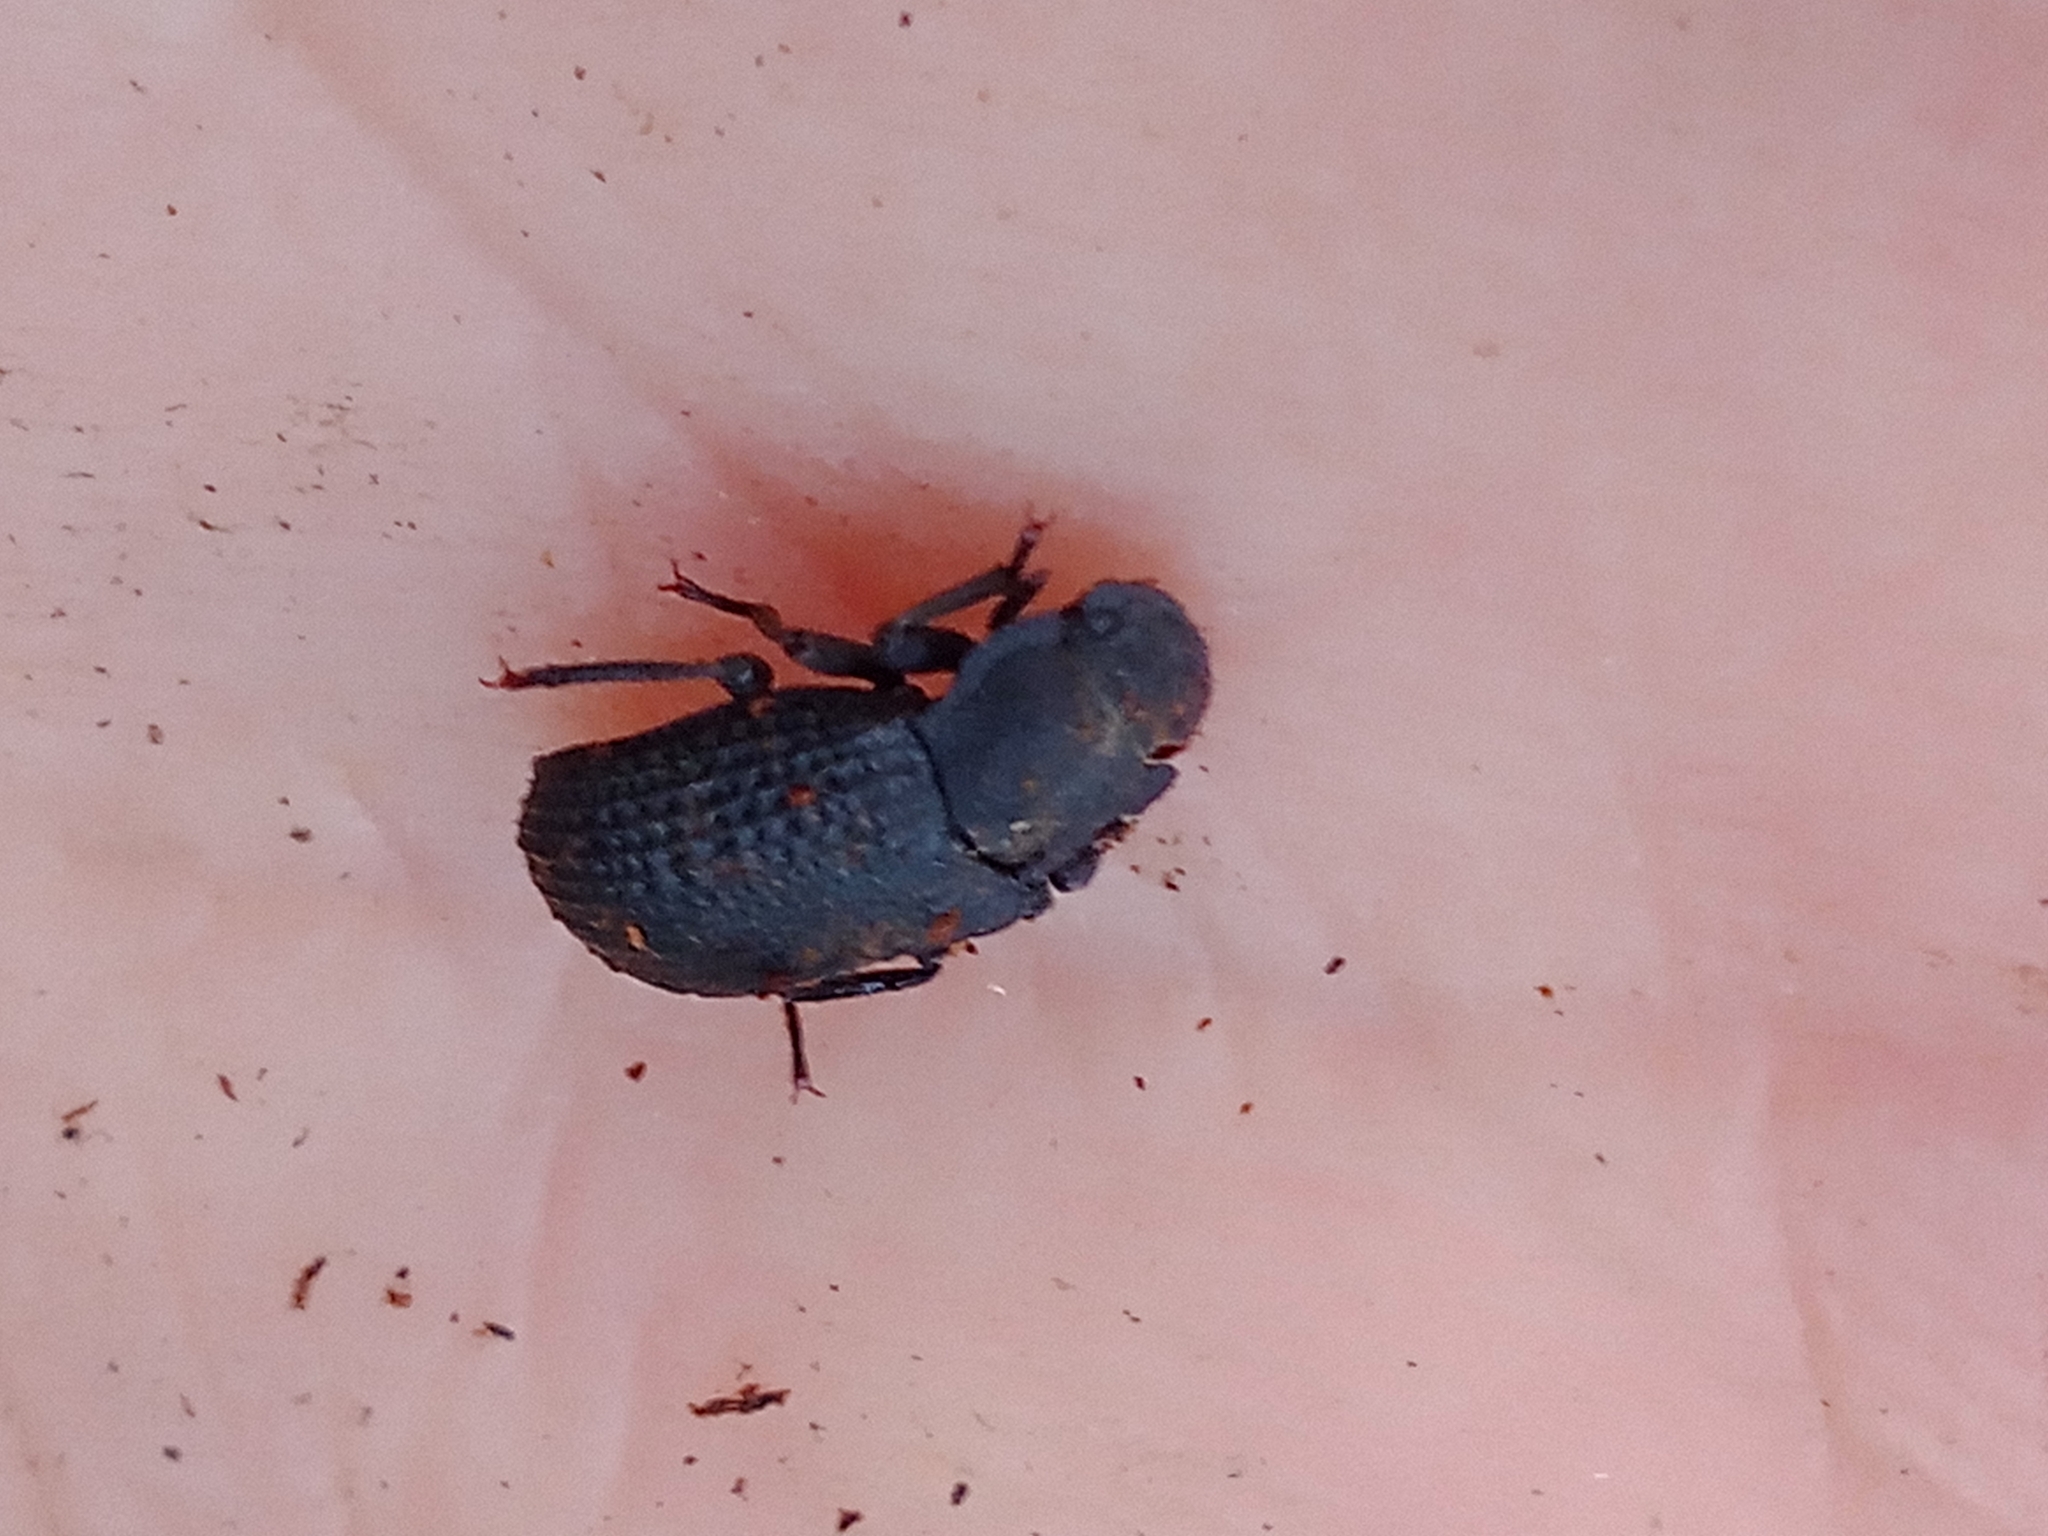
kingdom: Animalia
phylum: Arthropoda
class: Insecta
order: Coleoptera
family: Tenebrionidae
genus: Bolitophagus
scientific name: Bolitophagus reticulatus
